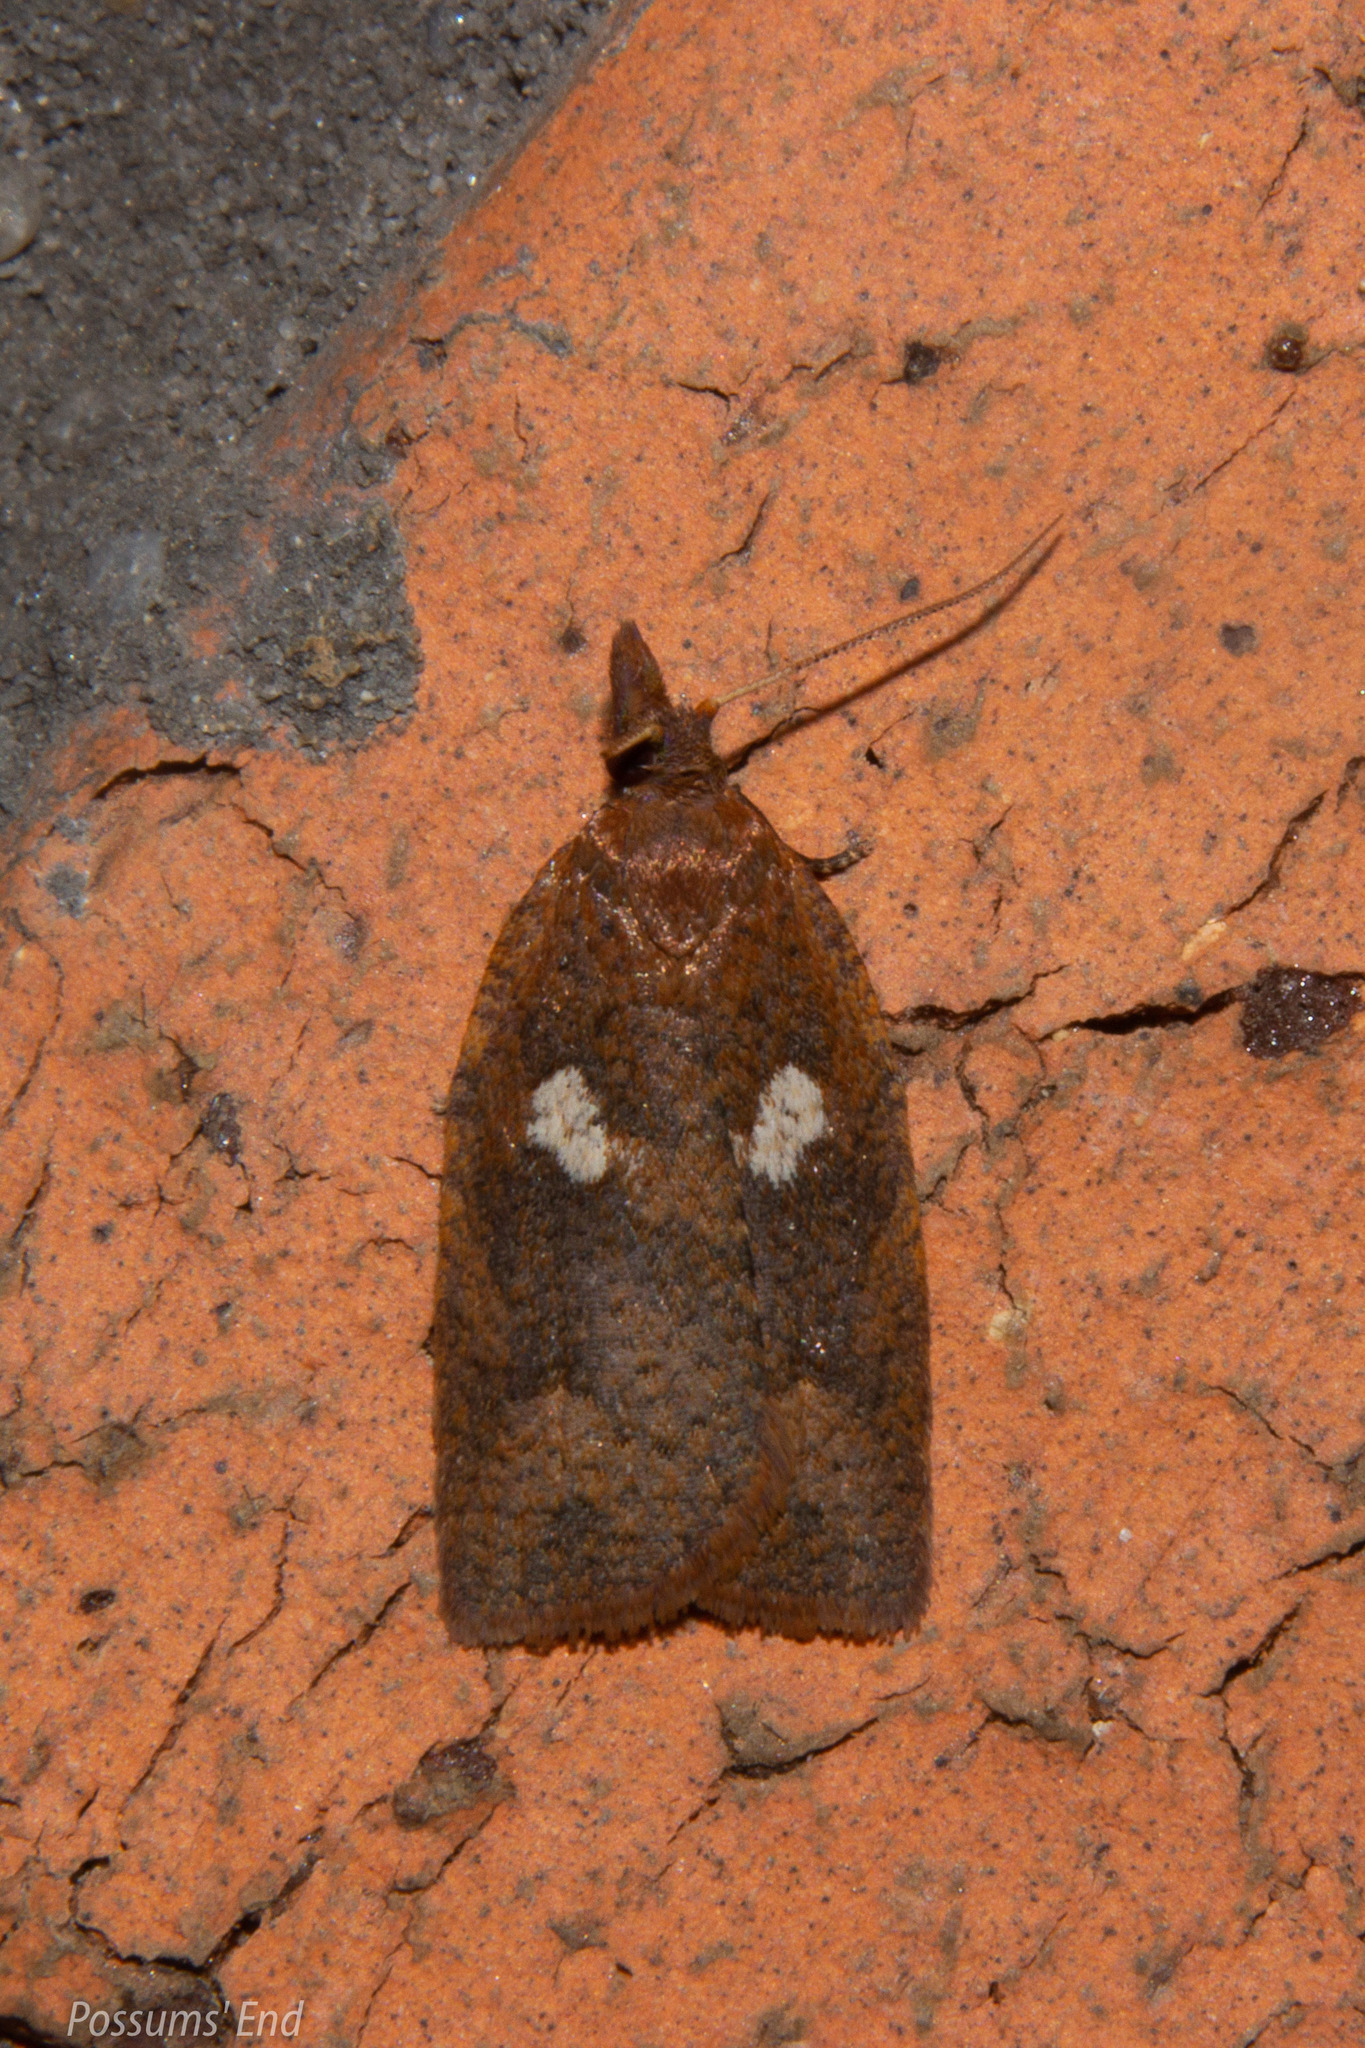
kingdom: Animalia
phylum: Arthropoda
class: Insecta
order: Lepidoptera
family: Tortricidae
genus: Planotortrix
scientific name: Planotortrix excessana
